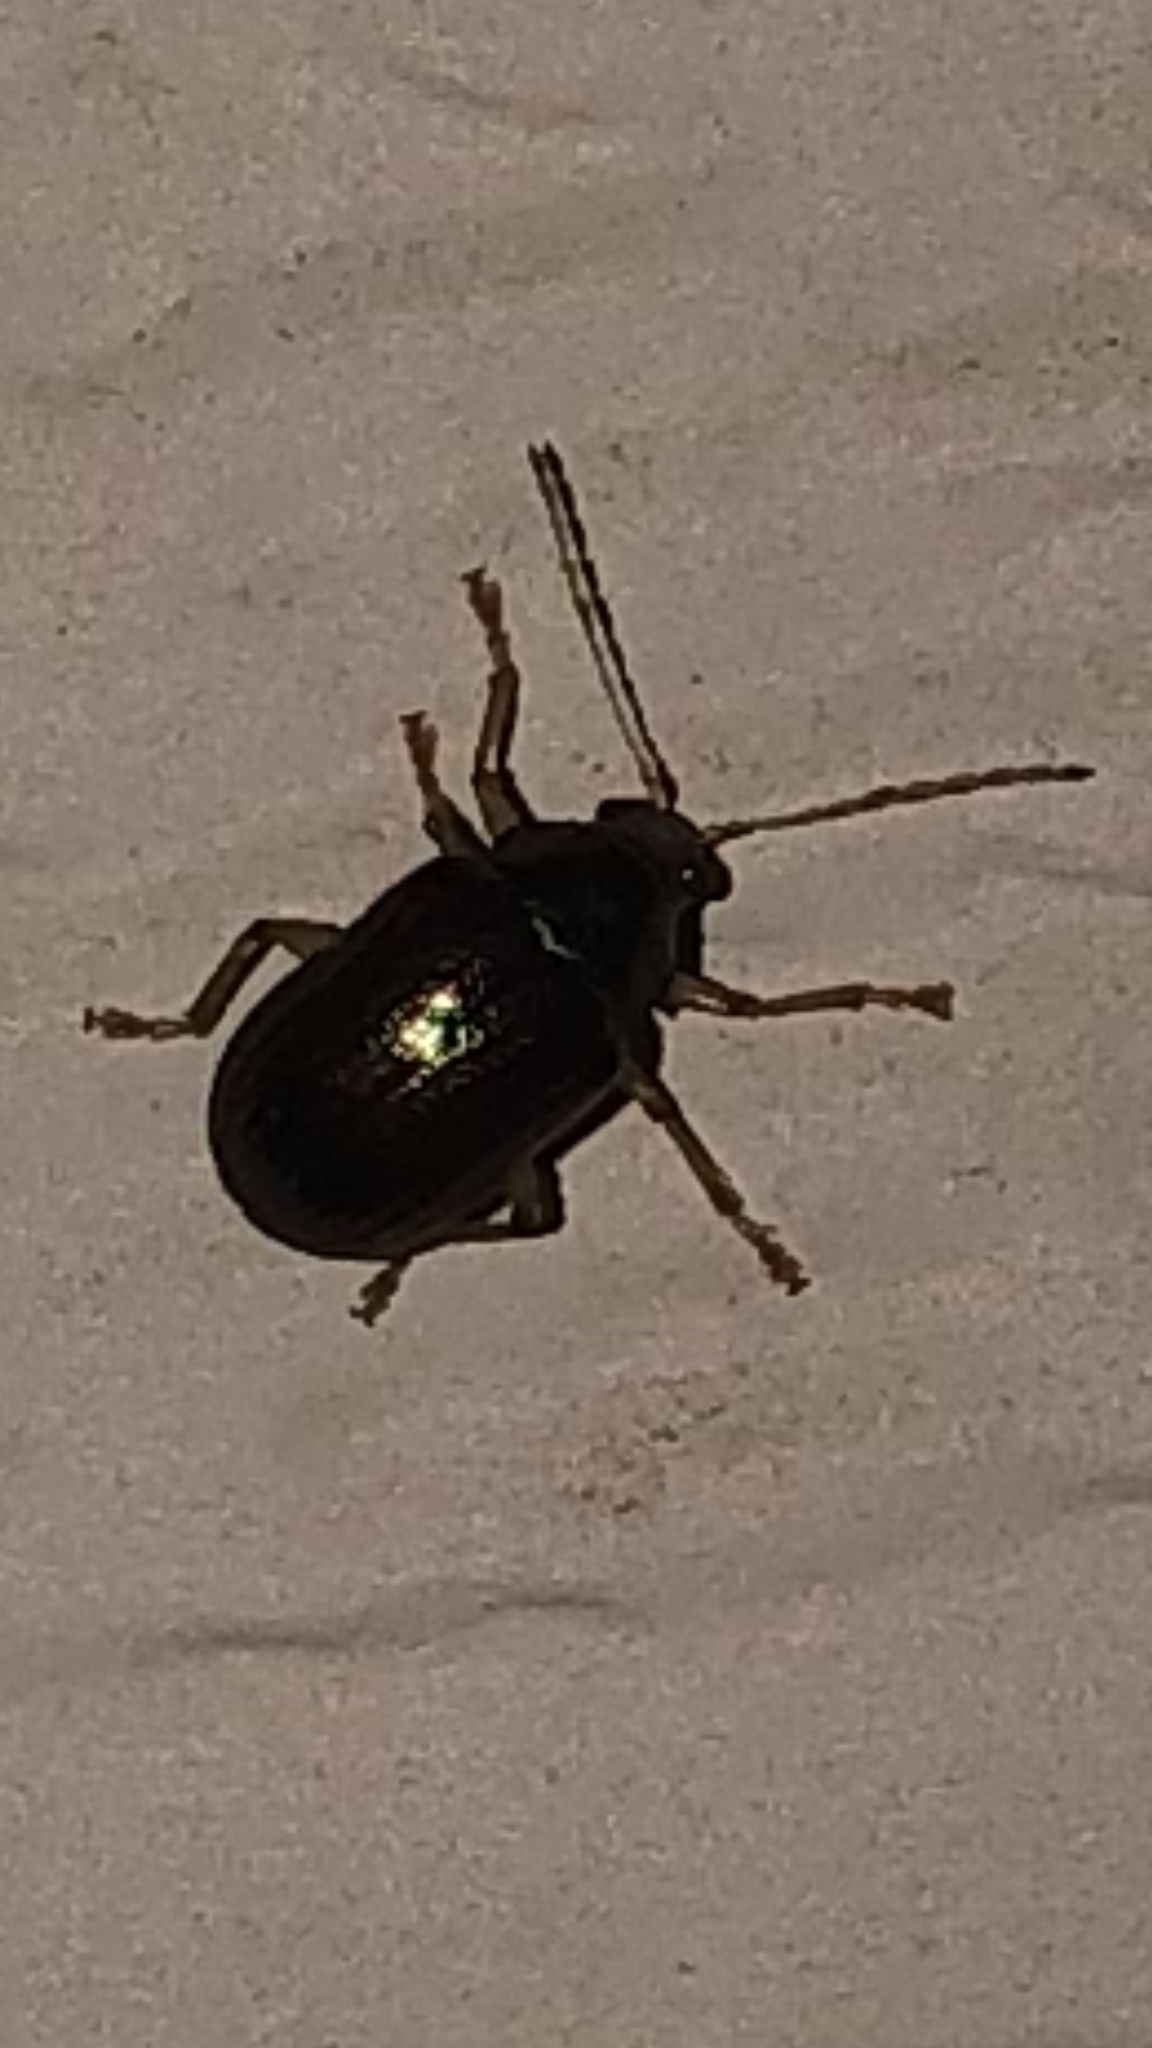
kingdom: Animalia
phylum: Arthropoda
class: Insecta
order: Coleoptera
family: Chrysomelidae
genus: Rhabdopterus
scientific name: Rhabdopterus
